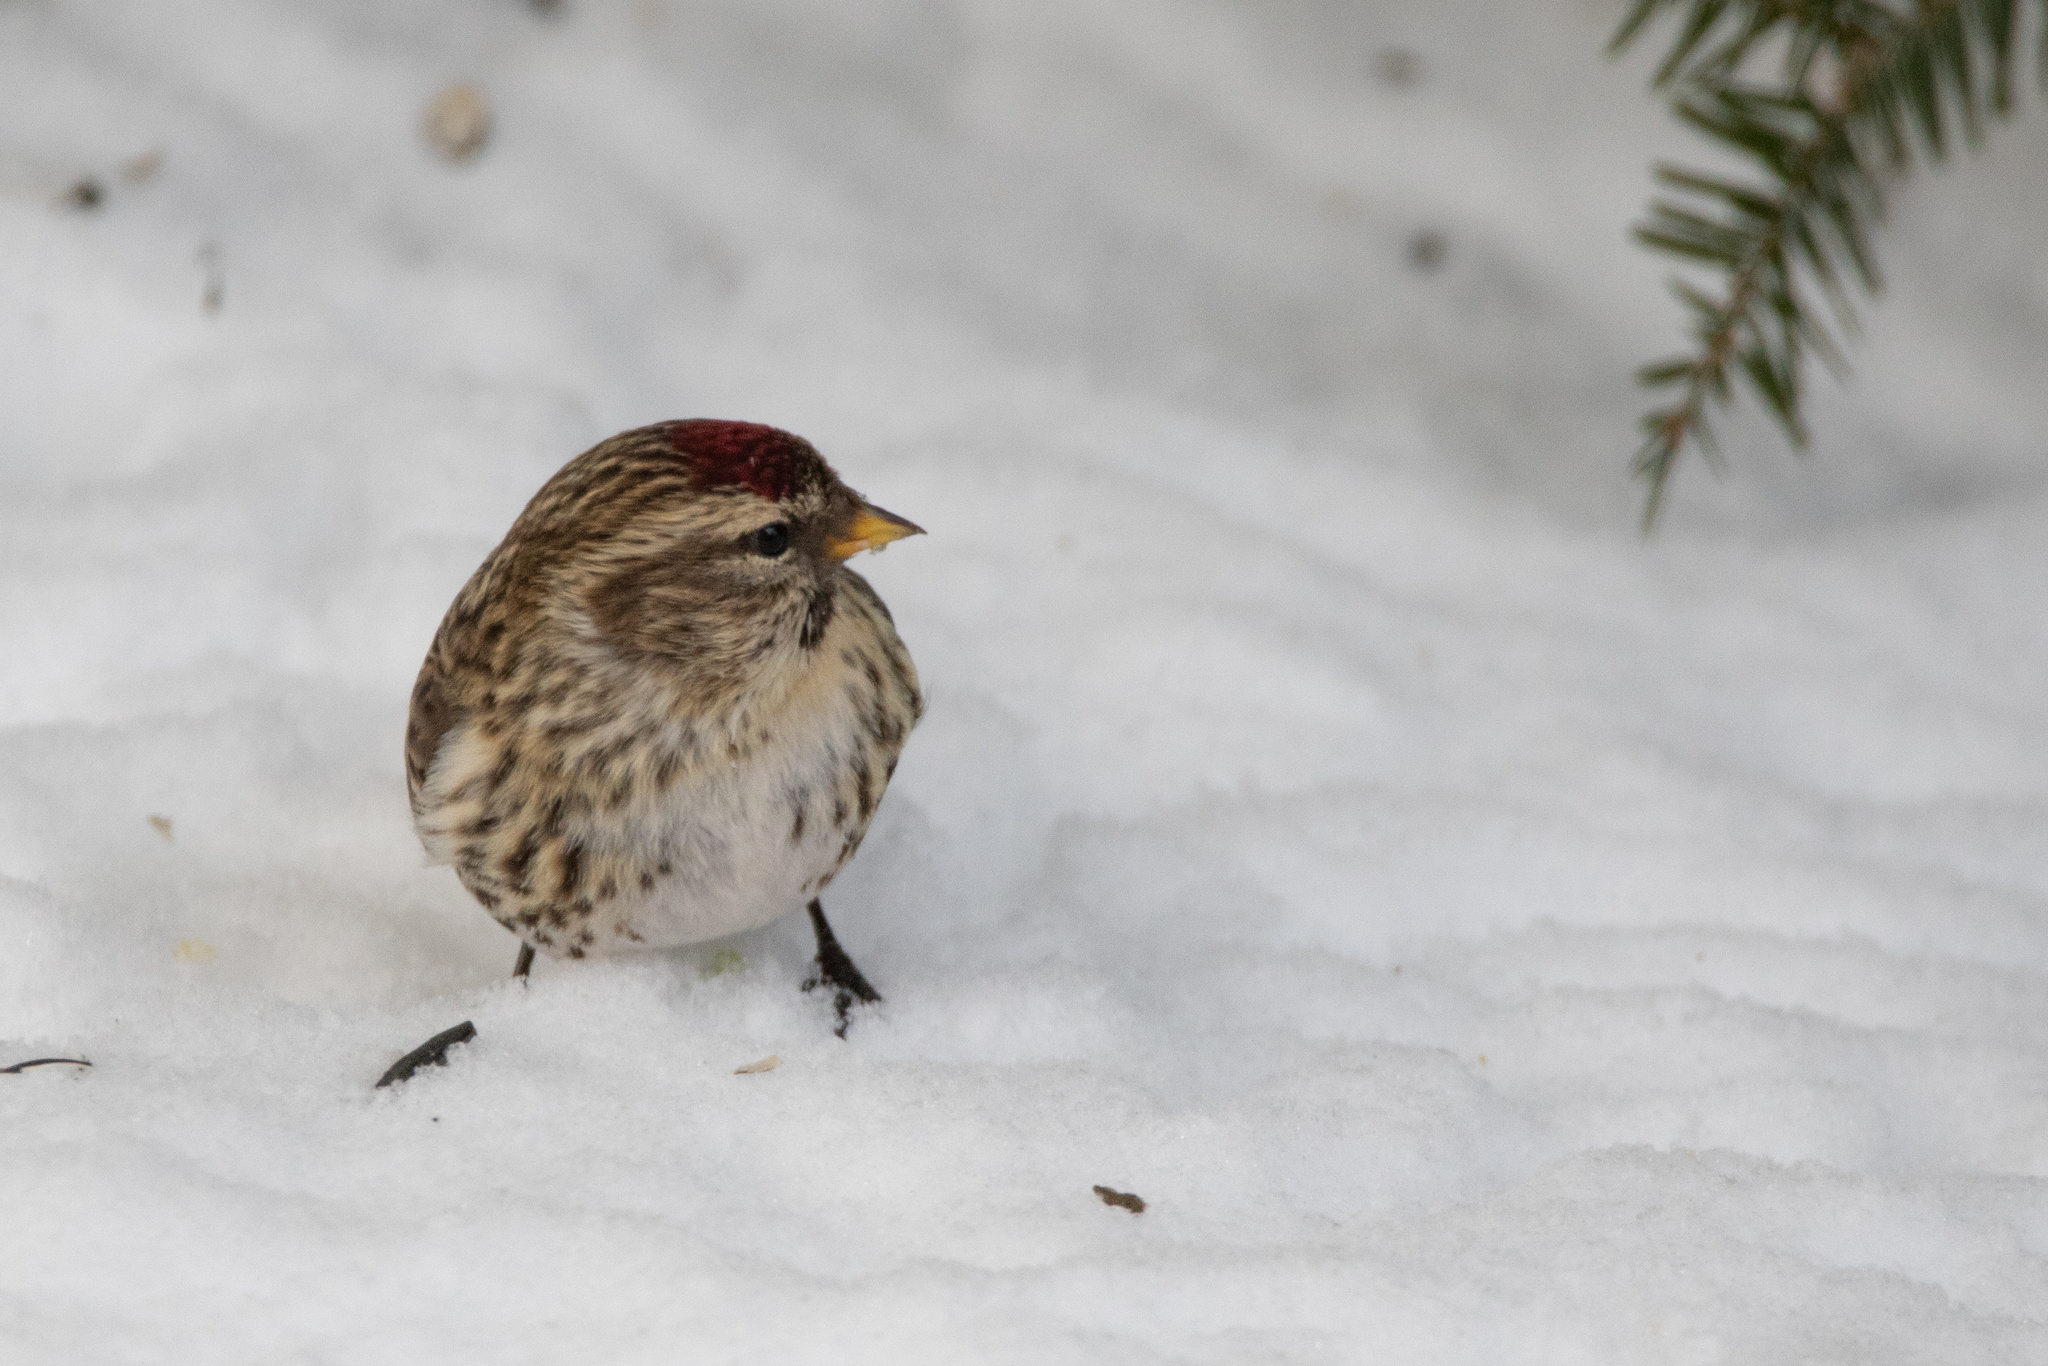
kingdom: Animalia
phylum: Chordata
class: Aves
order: Passeriformes
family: Fringillidae
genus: Acanthis
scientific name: Acanthis flammea
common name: Common redpoll
